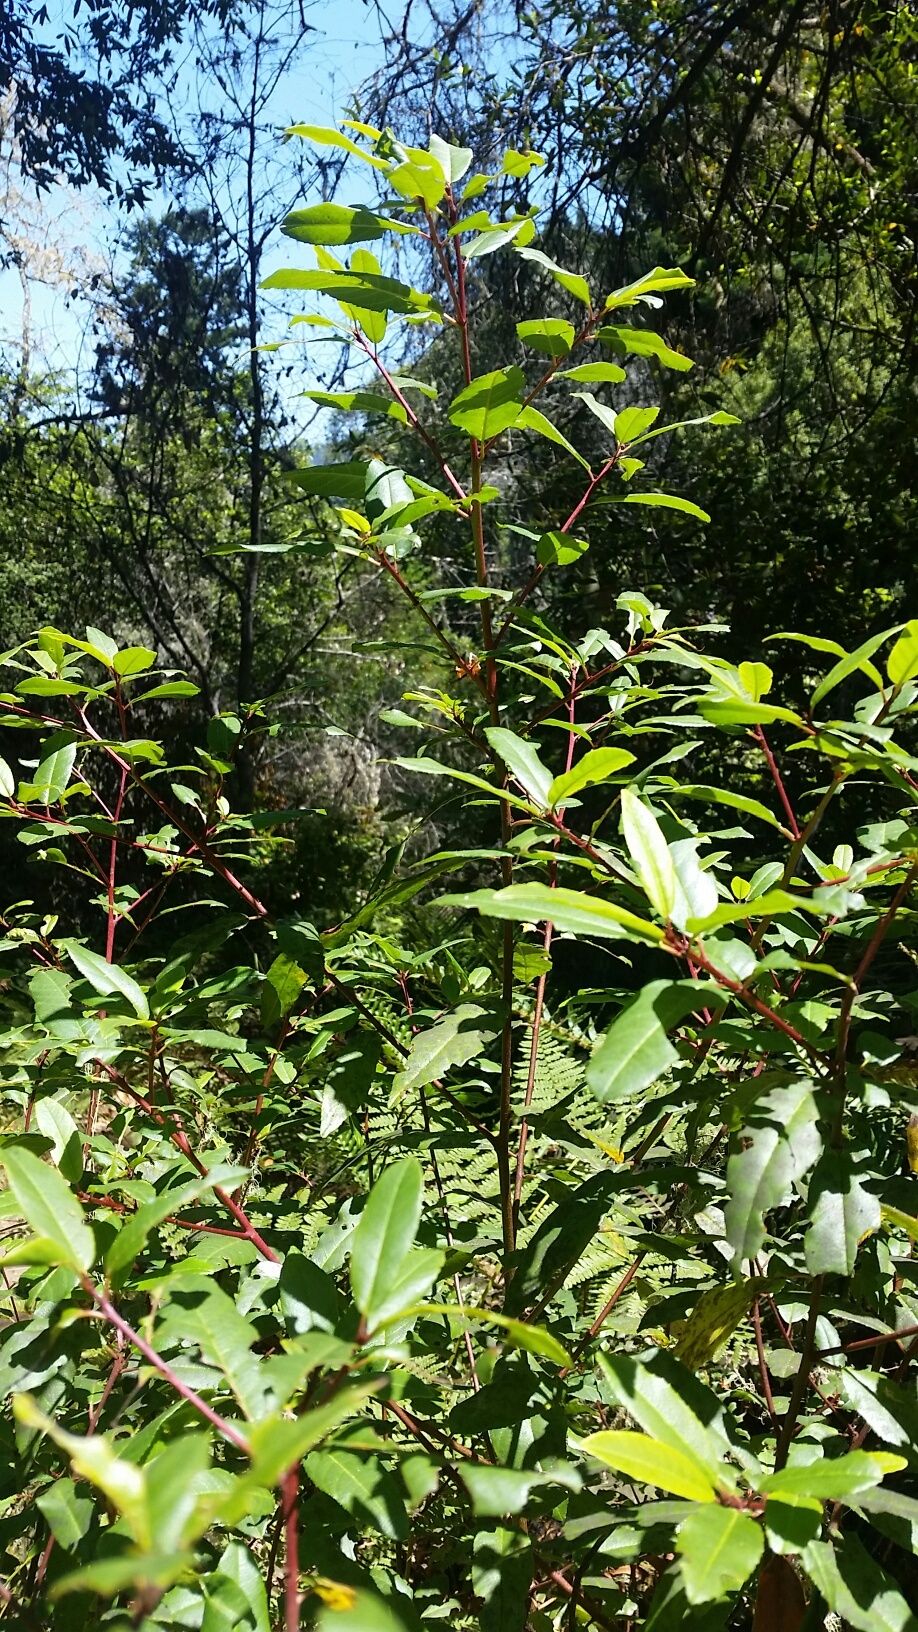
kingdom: Plantae
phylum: Tracheophyta
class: Magnoliopsida
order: Rosales
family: Rhamnaceae
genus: Frangula
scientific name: Frangula californica
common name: California buckthorn
